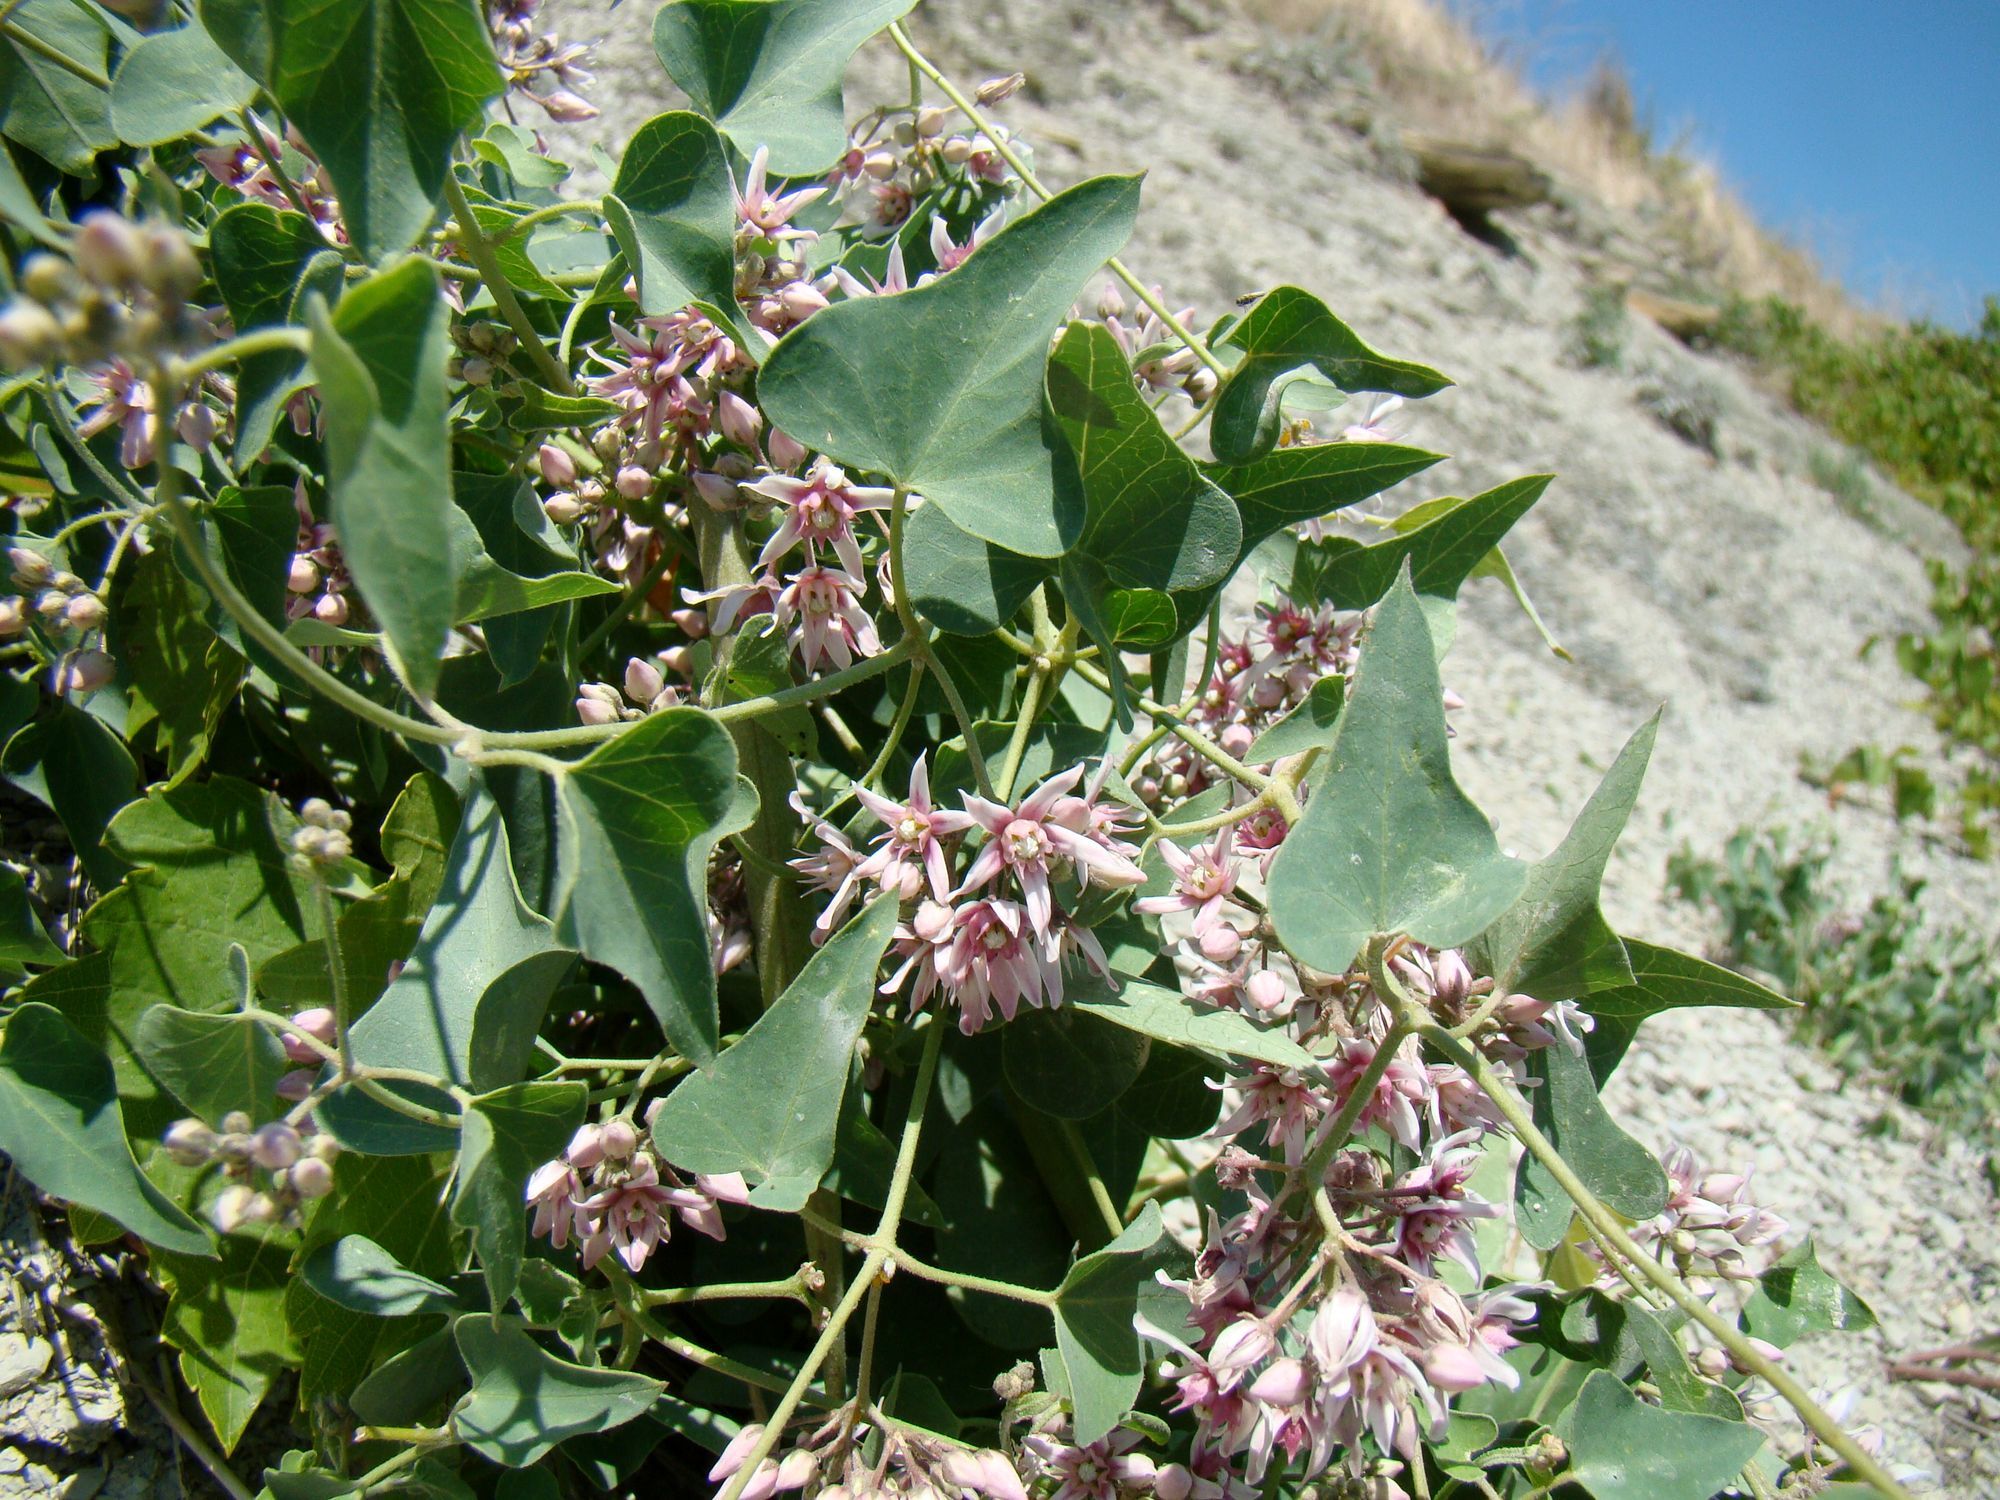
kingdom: Plantae
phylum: Tracheophyta
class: Magnoliopsida
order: Gentianales
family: Apocynaceae
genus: Cynanchum
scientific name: Cynanchum acutum
